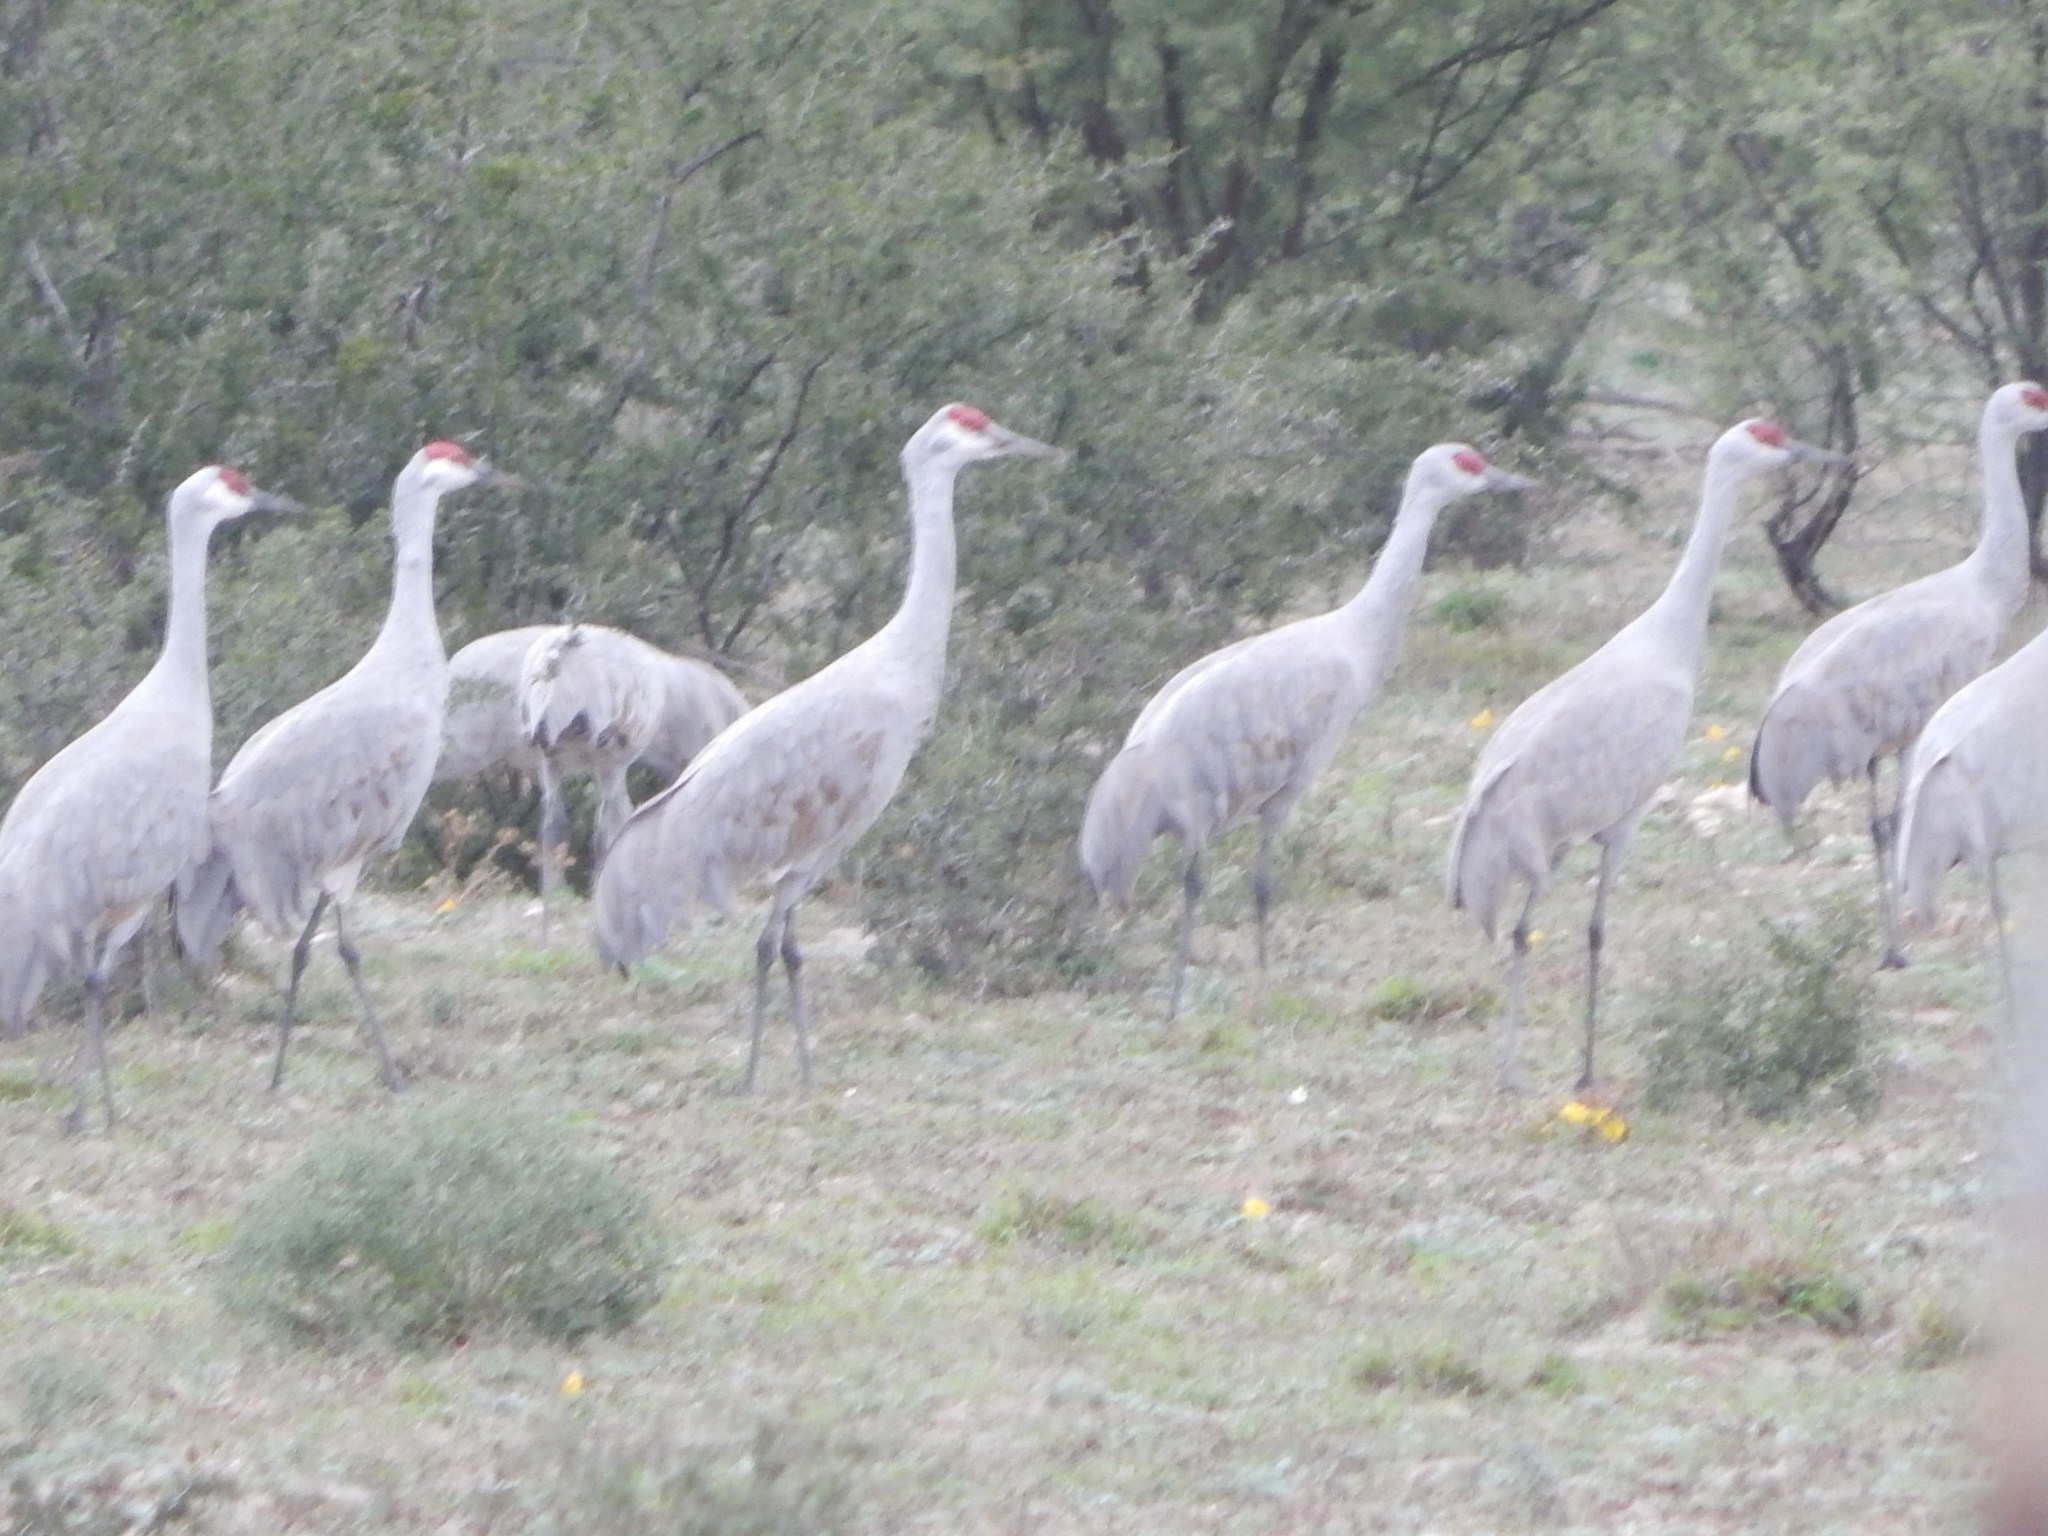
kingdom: Animalia
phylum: Chordata
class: Aves
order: Gruiformes
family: Gruidae
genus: Grus
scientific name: Grus canadensis
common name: Sandhill crane
